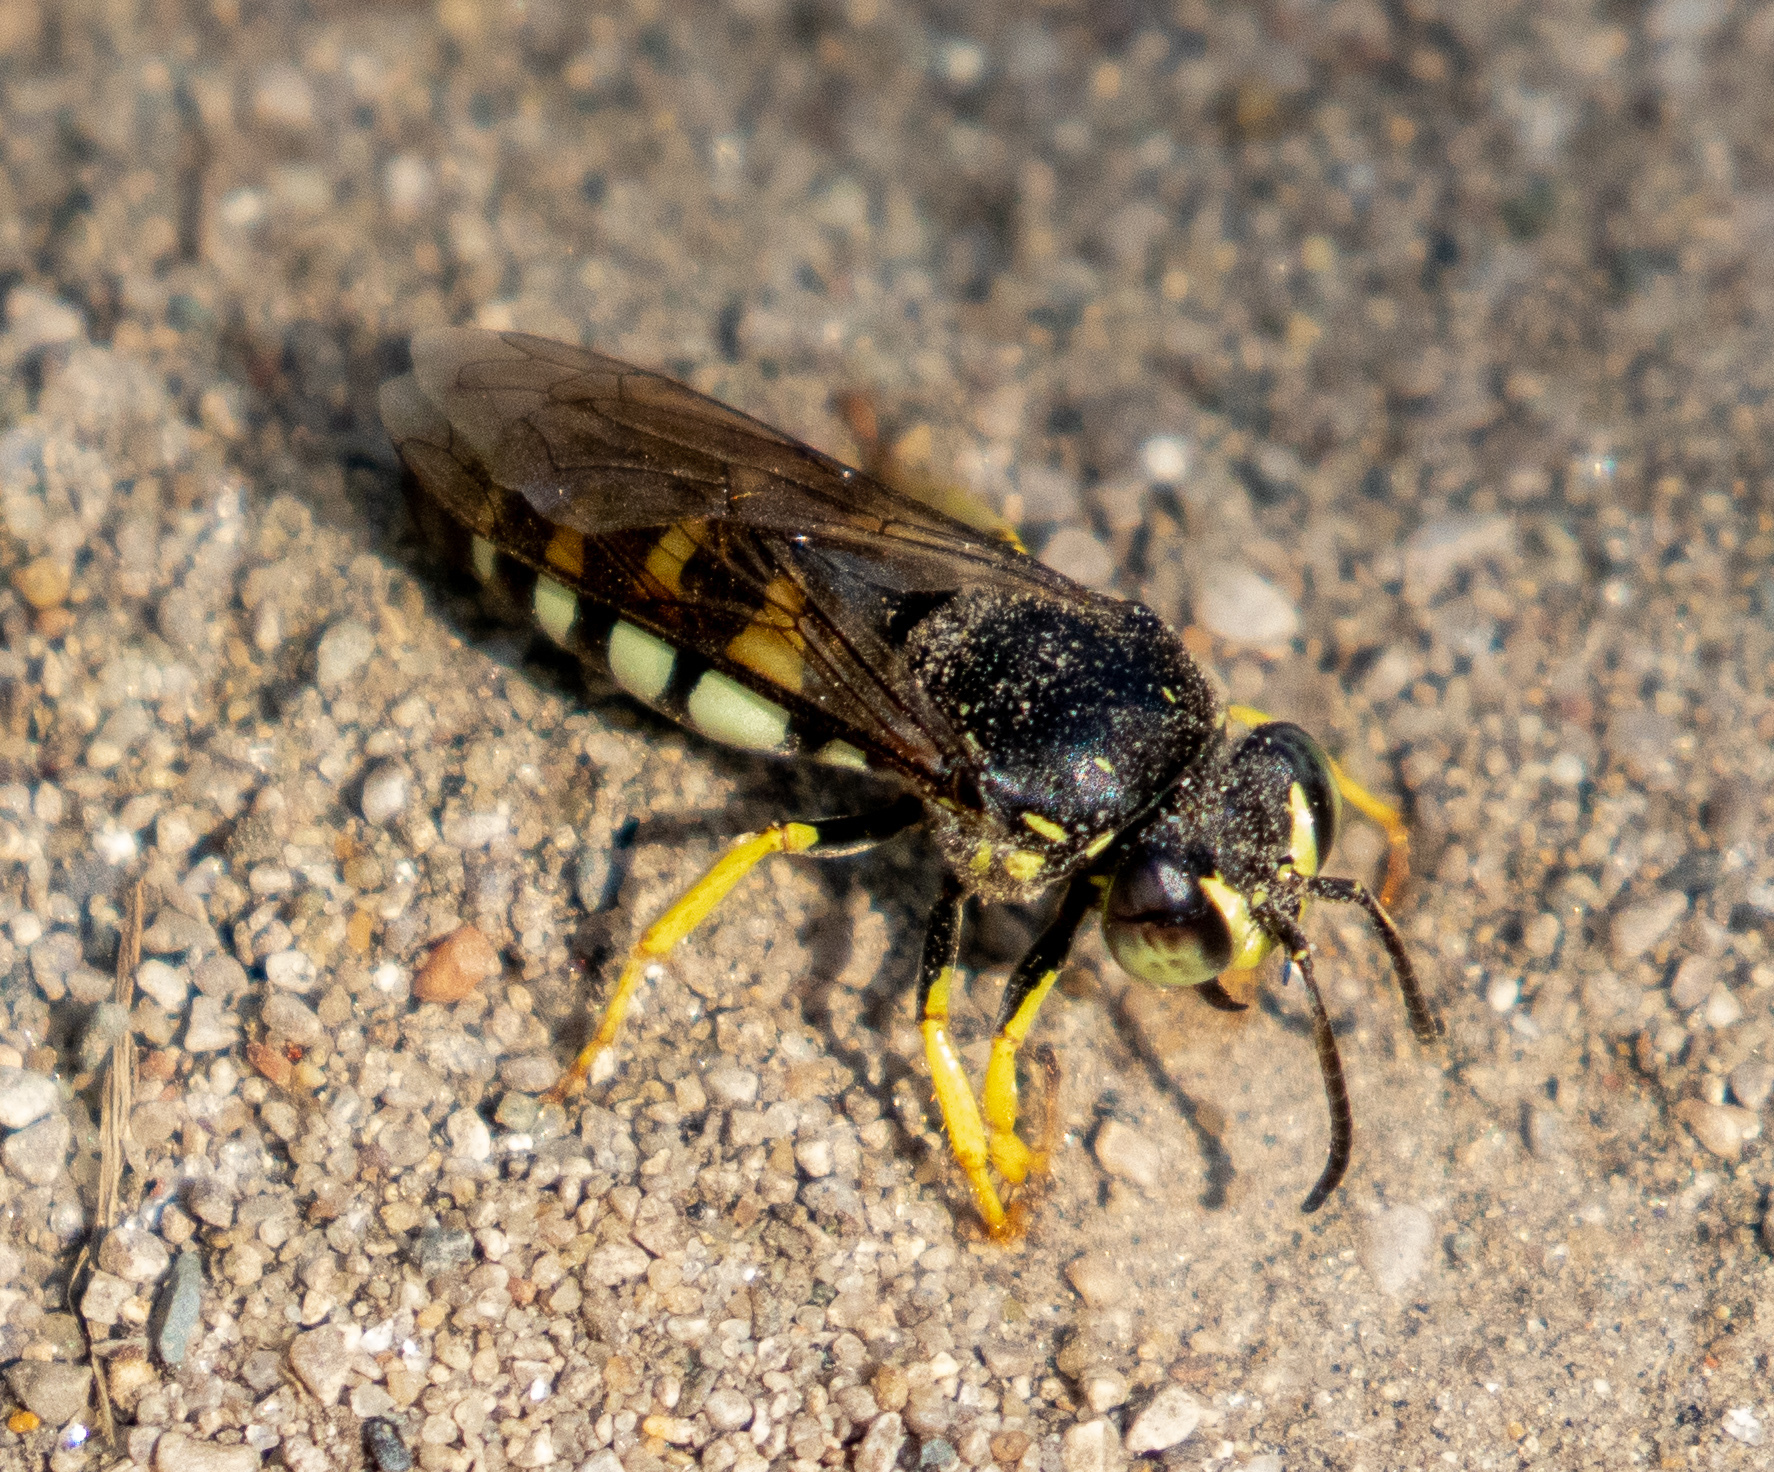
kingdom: Animalia
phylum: Arthropoda
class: Insecta
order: Hymenoptera
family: Crabronidae
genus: Bicyrtes
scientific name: Bicyrtes quadrifasciatus
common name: Four-banded stink bug hunter wasp
